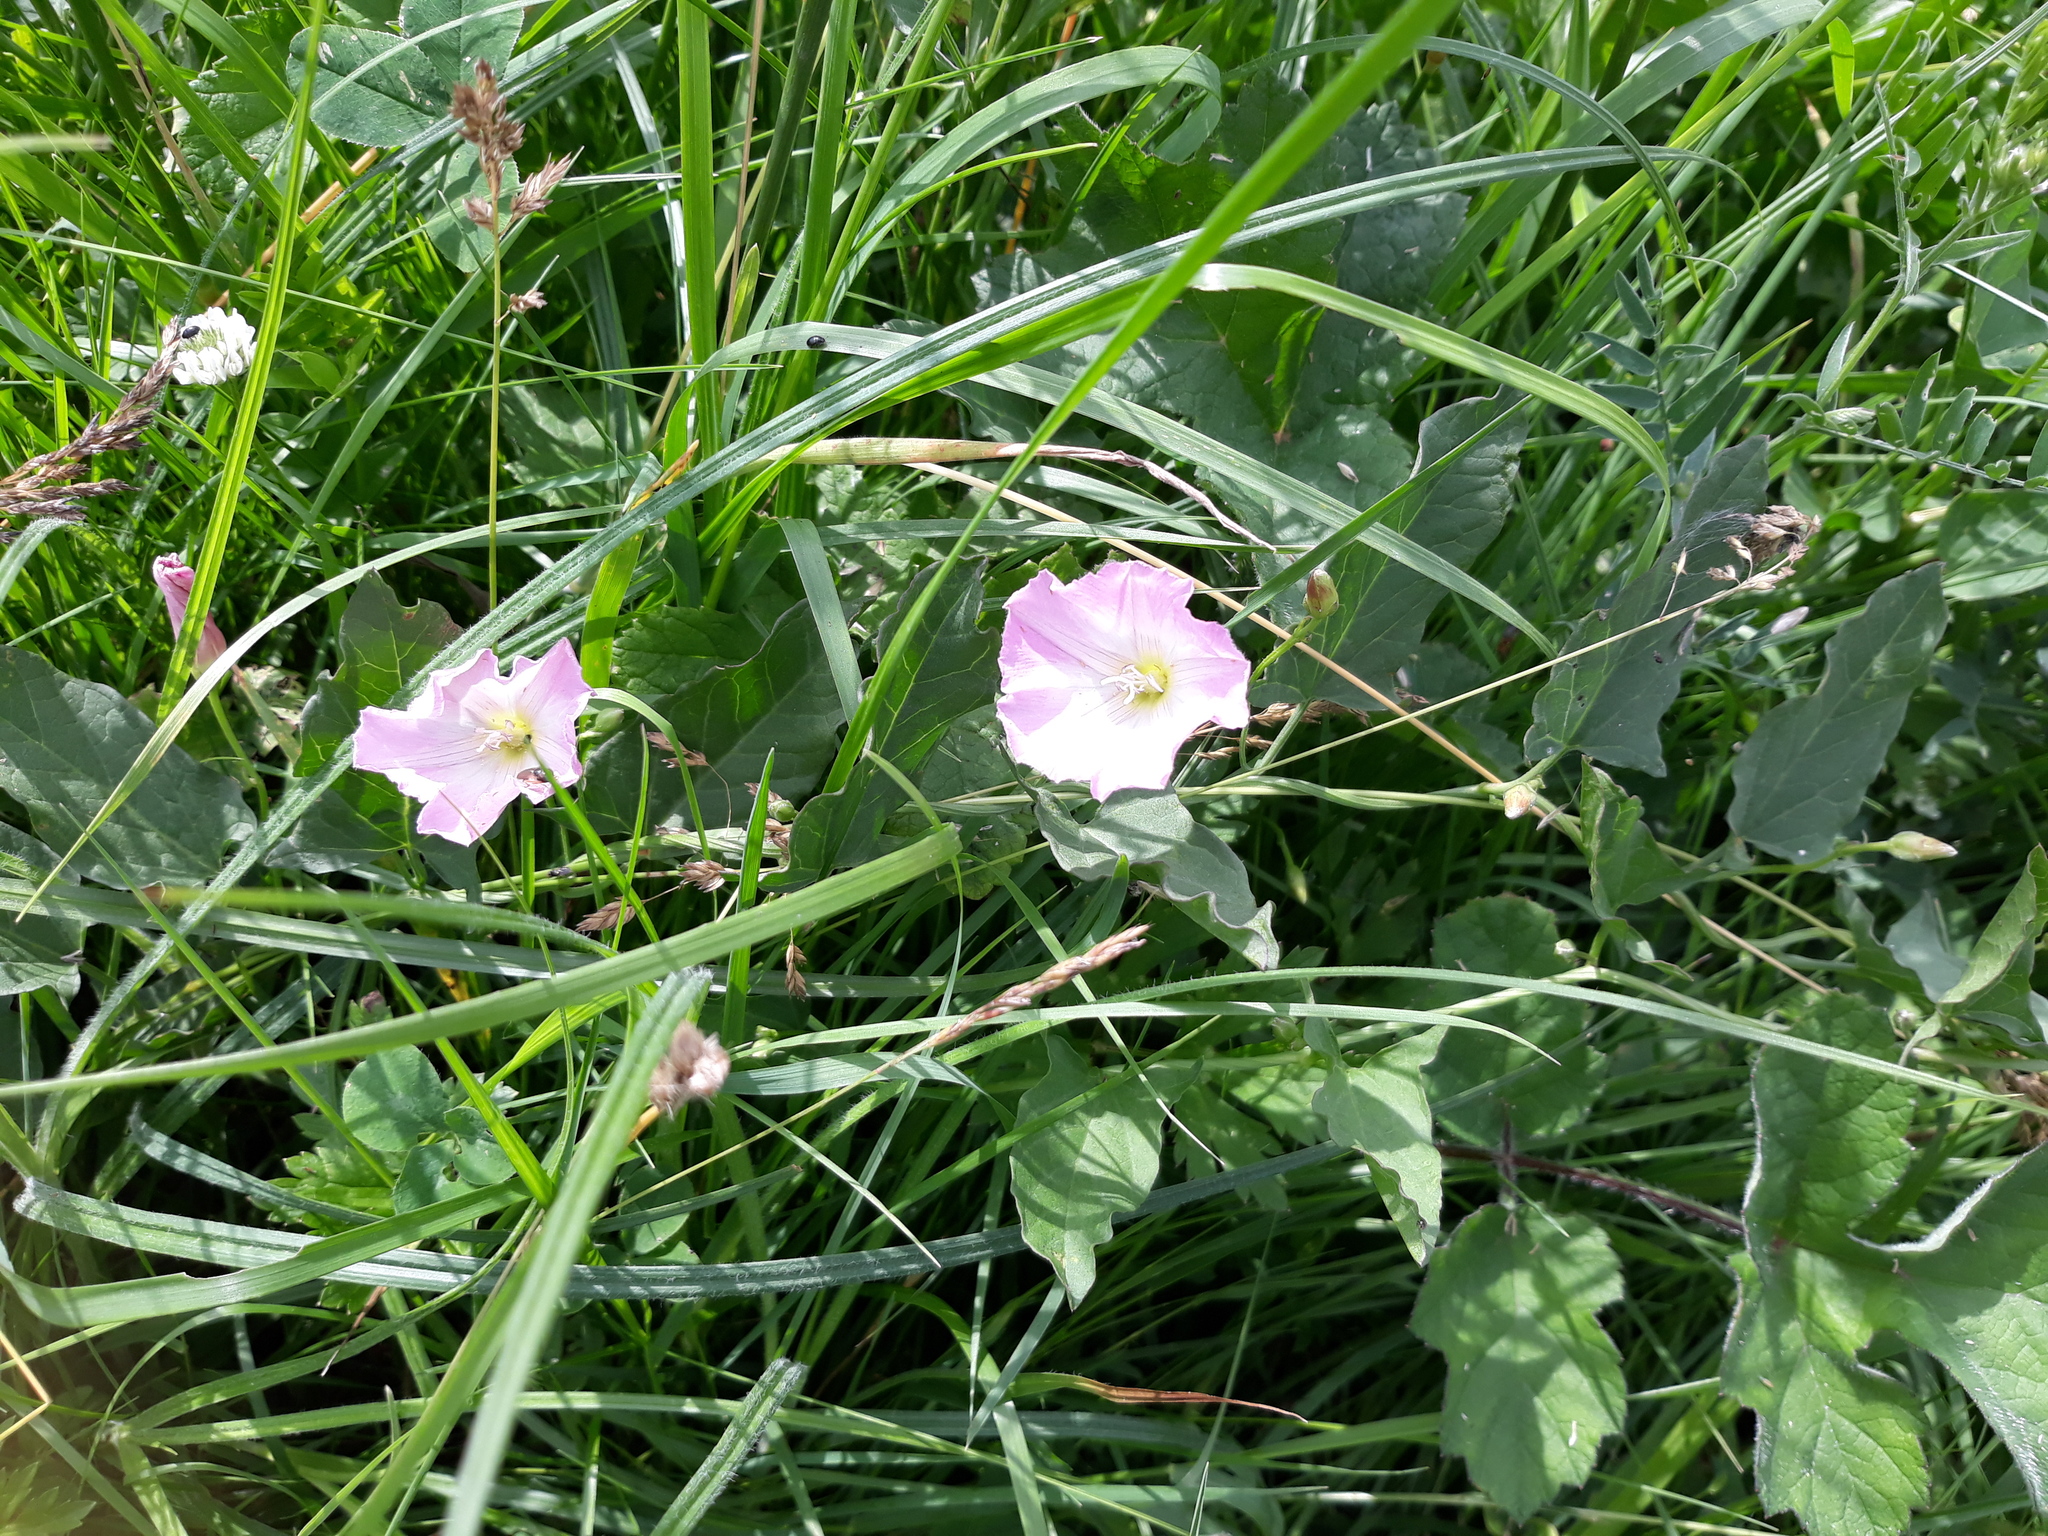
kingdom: Plantae
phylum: Tracheophyta
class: Magnoliopsida
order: Solanales
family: Convolvulaceae
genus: Convolvulus
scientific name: Convolvulus arvensis
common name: Field bindweed
